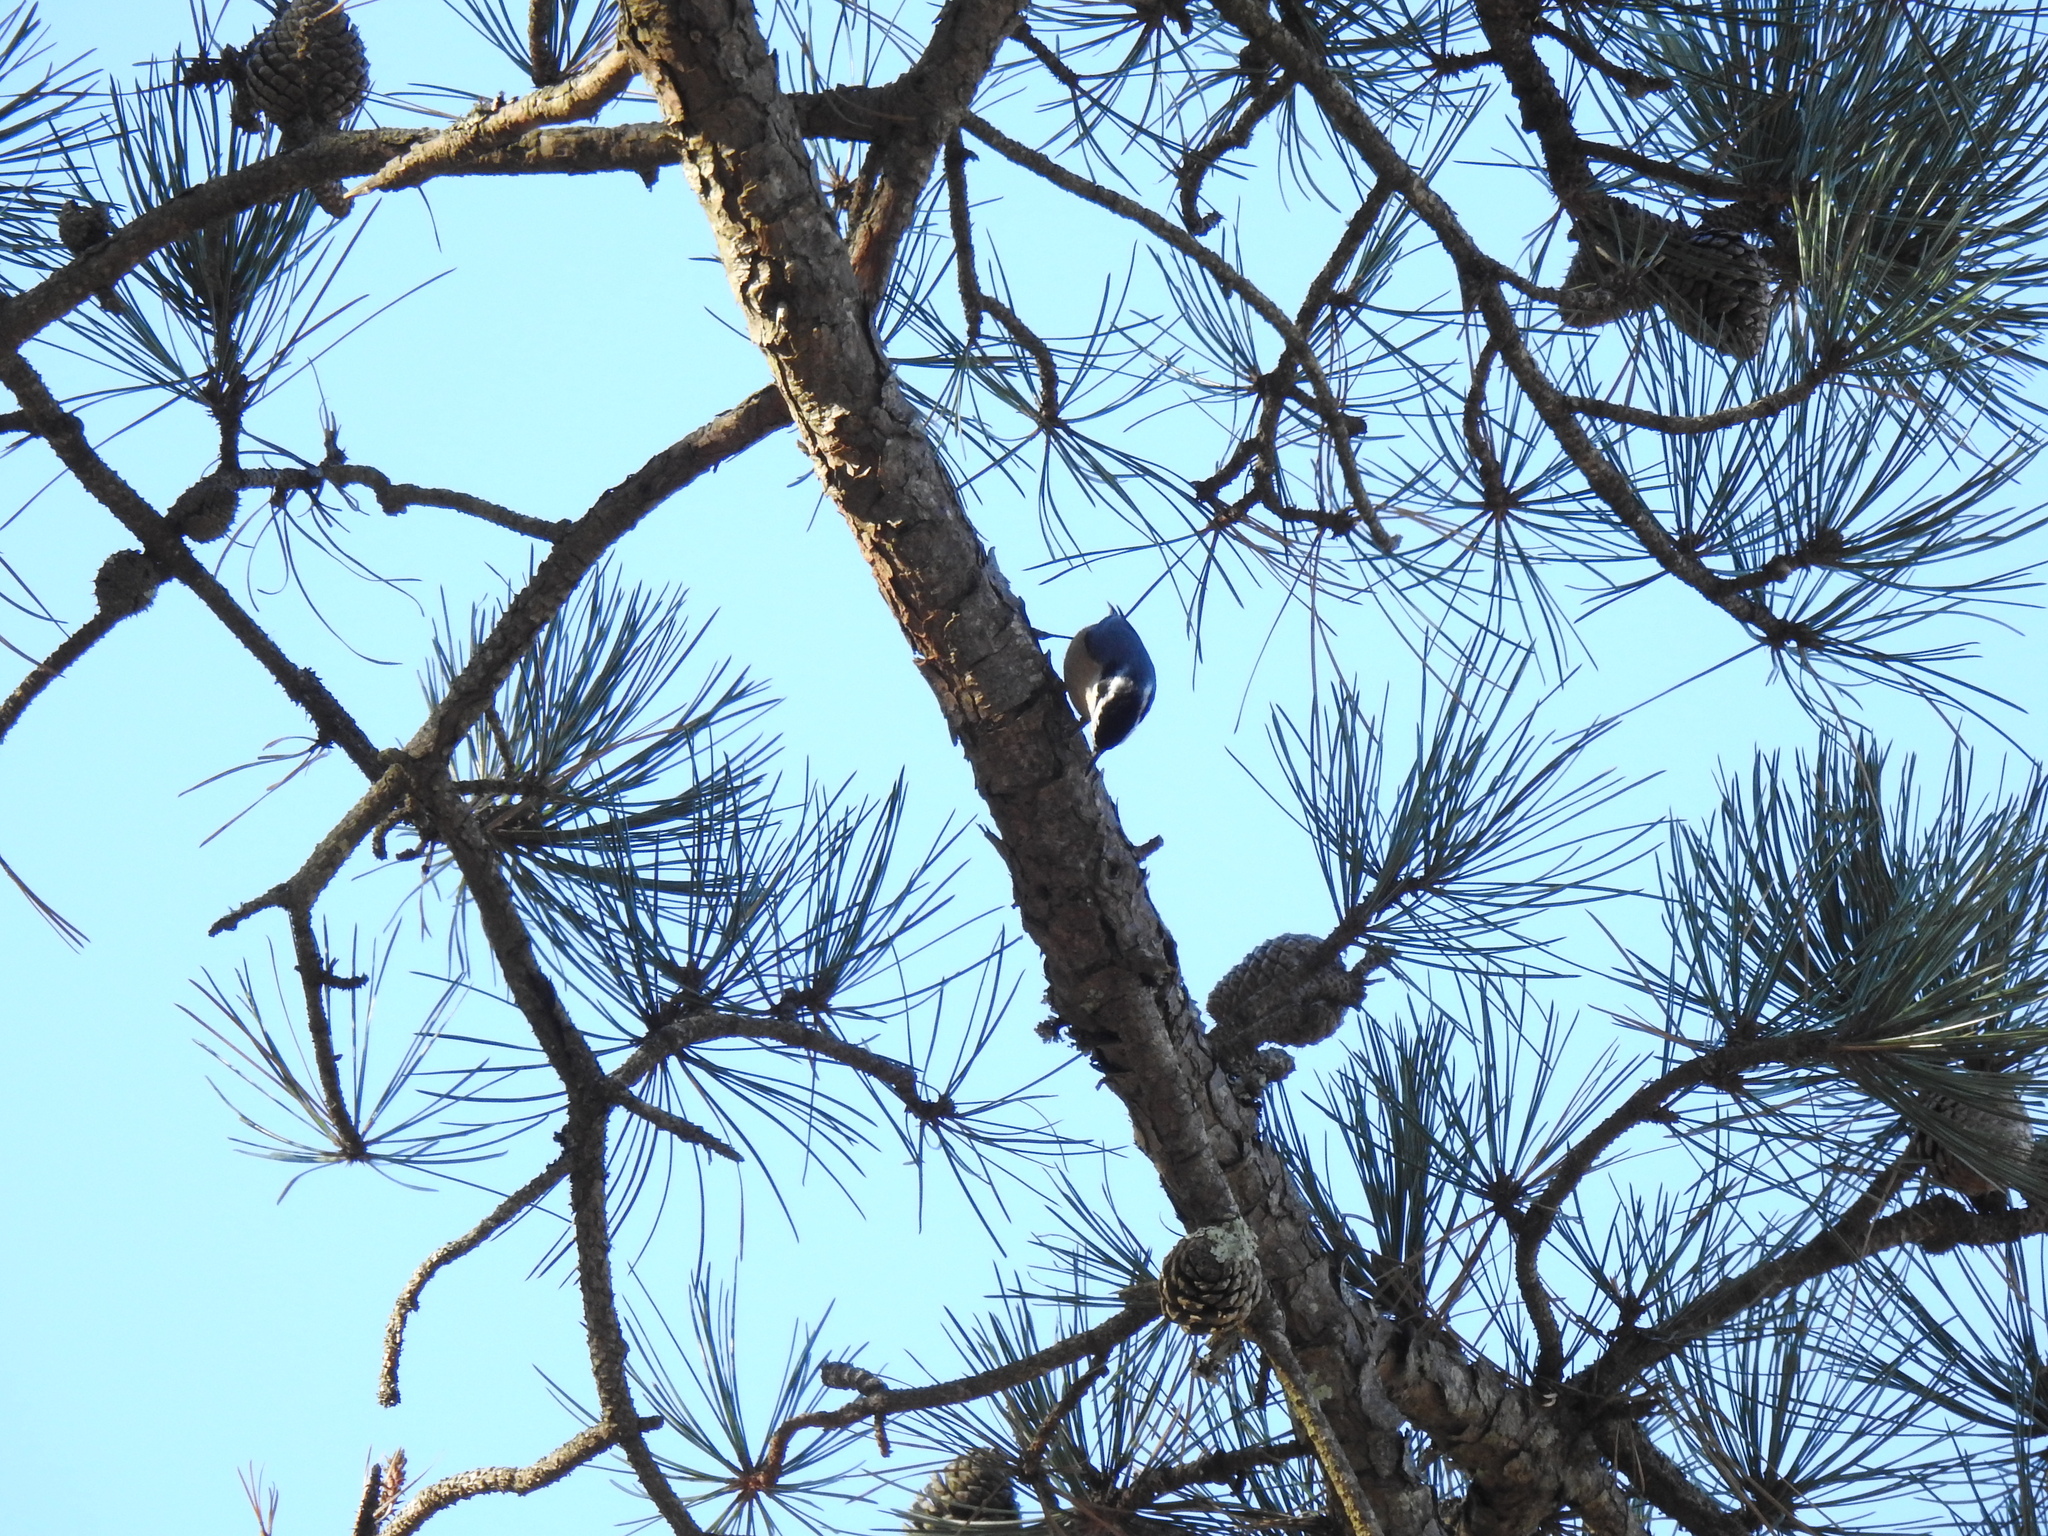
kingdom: Animalia
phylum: Chordata
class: Aves
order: Passeriformes
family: Sittidae
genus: Sitta
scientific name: Sitta canadensis
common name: Red-breasted nuthatch
